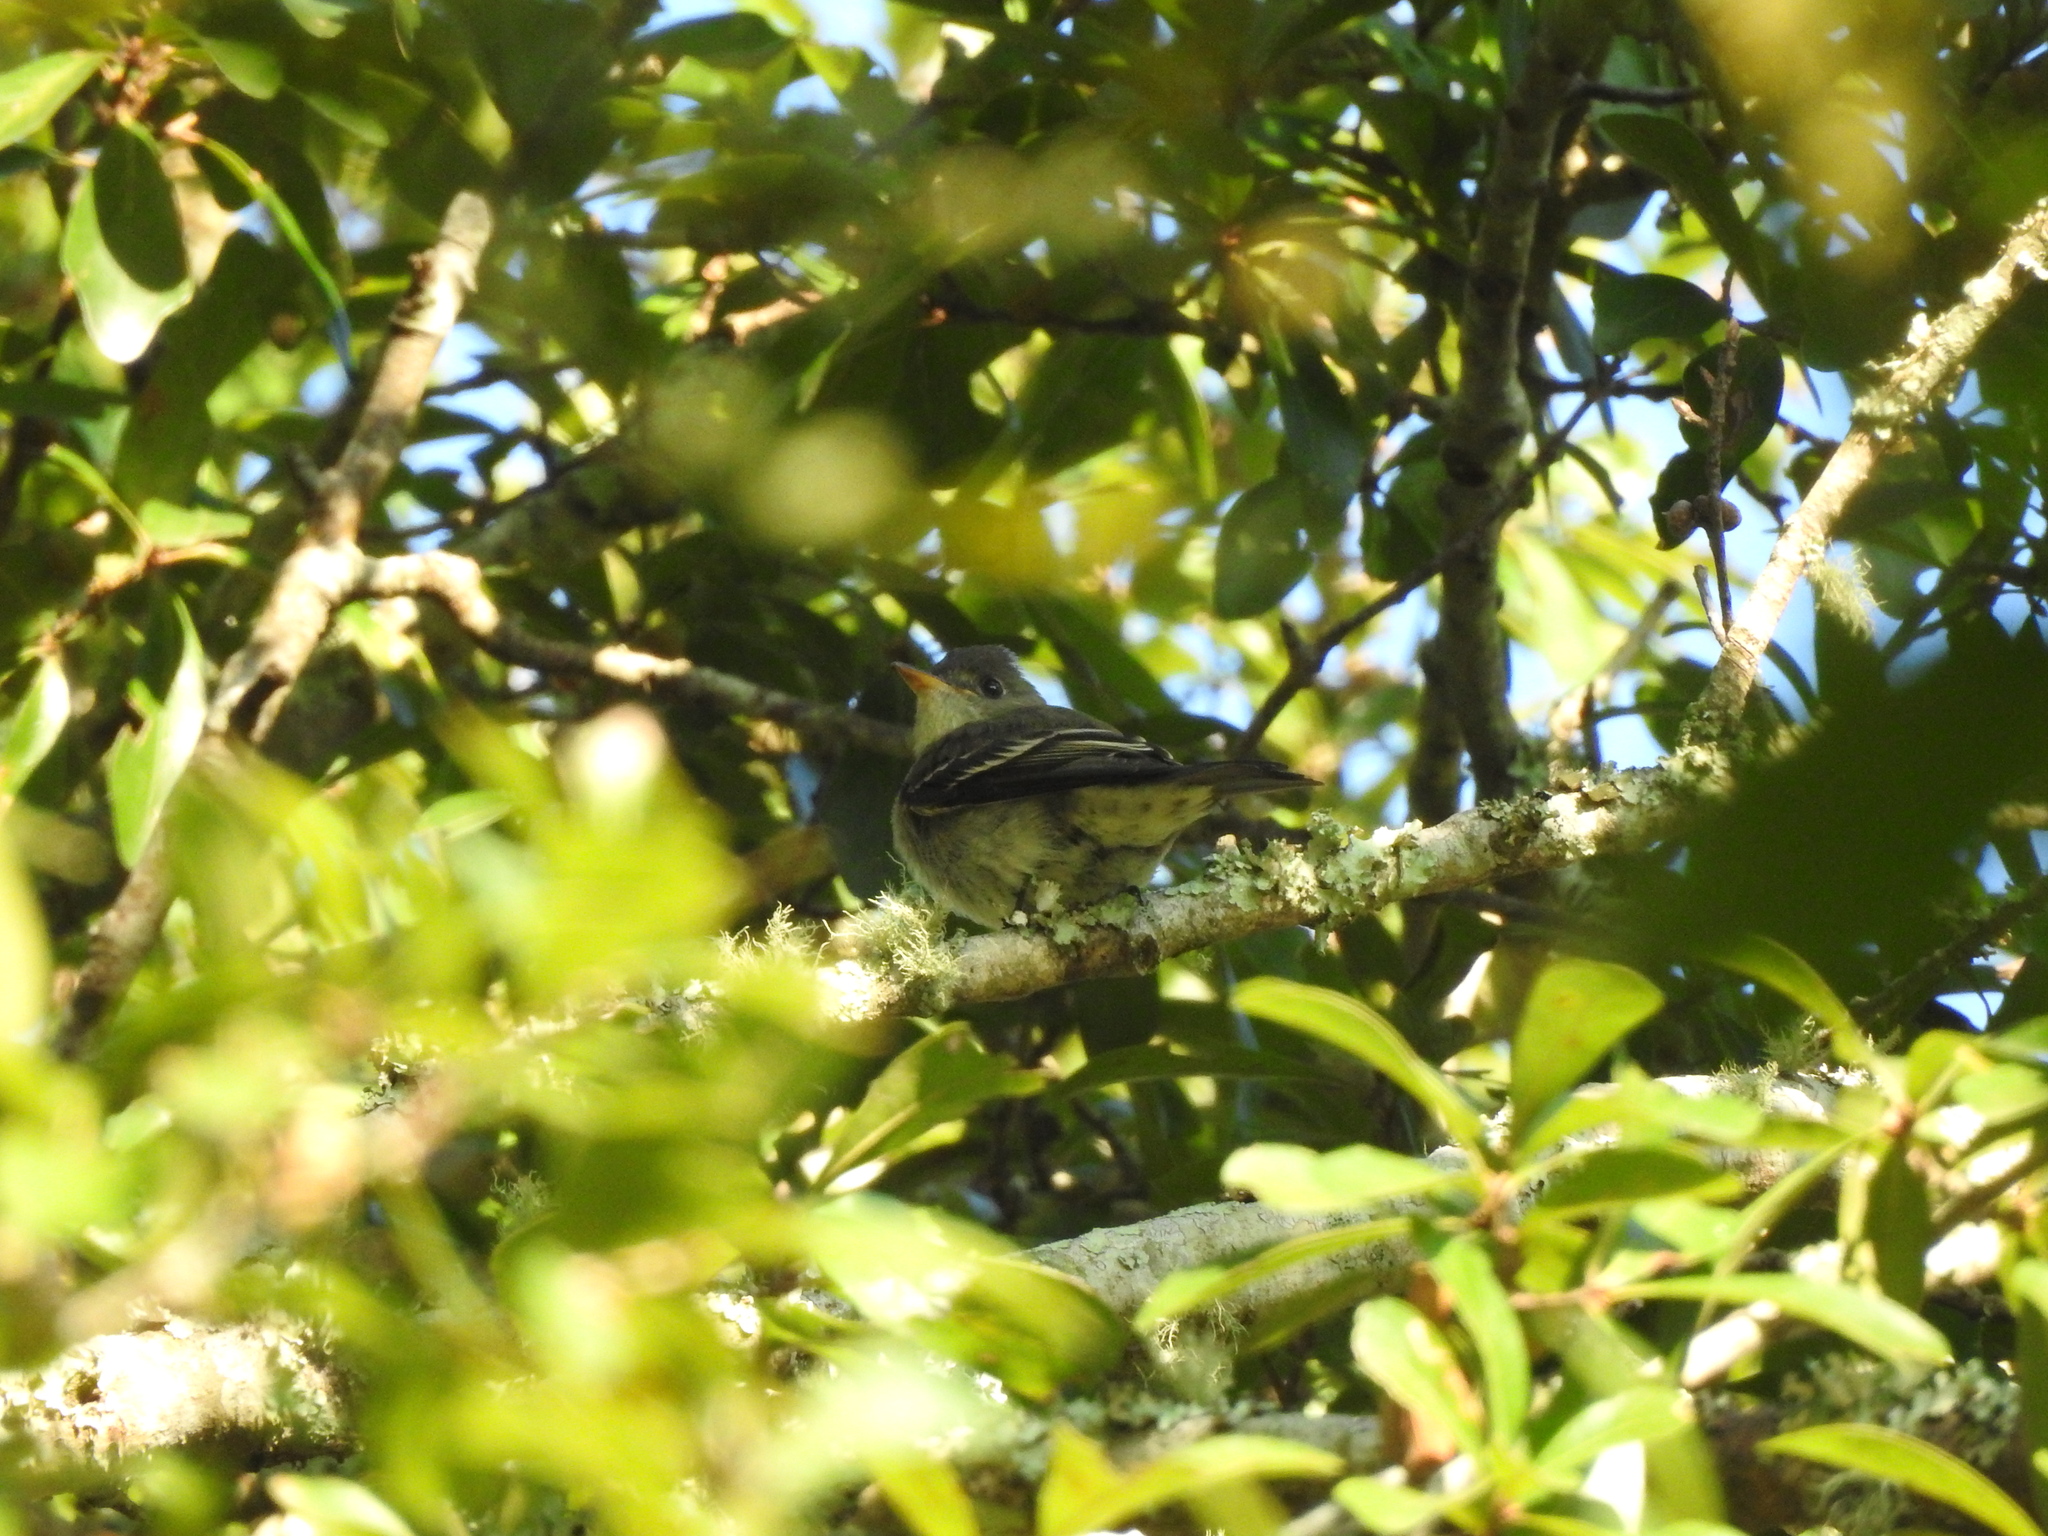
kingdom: Animalia
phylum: Chordata
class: Aves
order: Passeriformes
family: Tyrannidae
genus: Contopus
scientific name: Contopus virens
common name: Eastern wood-pewee
